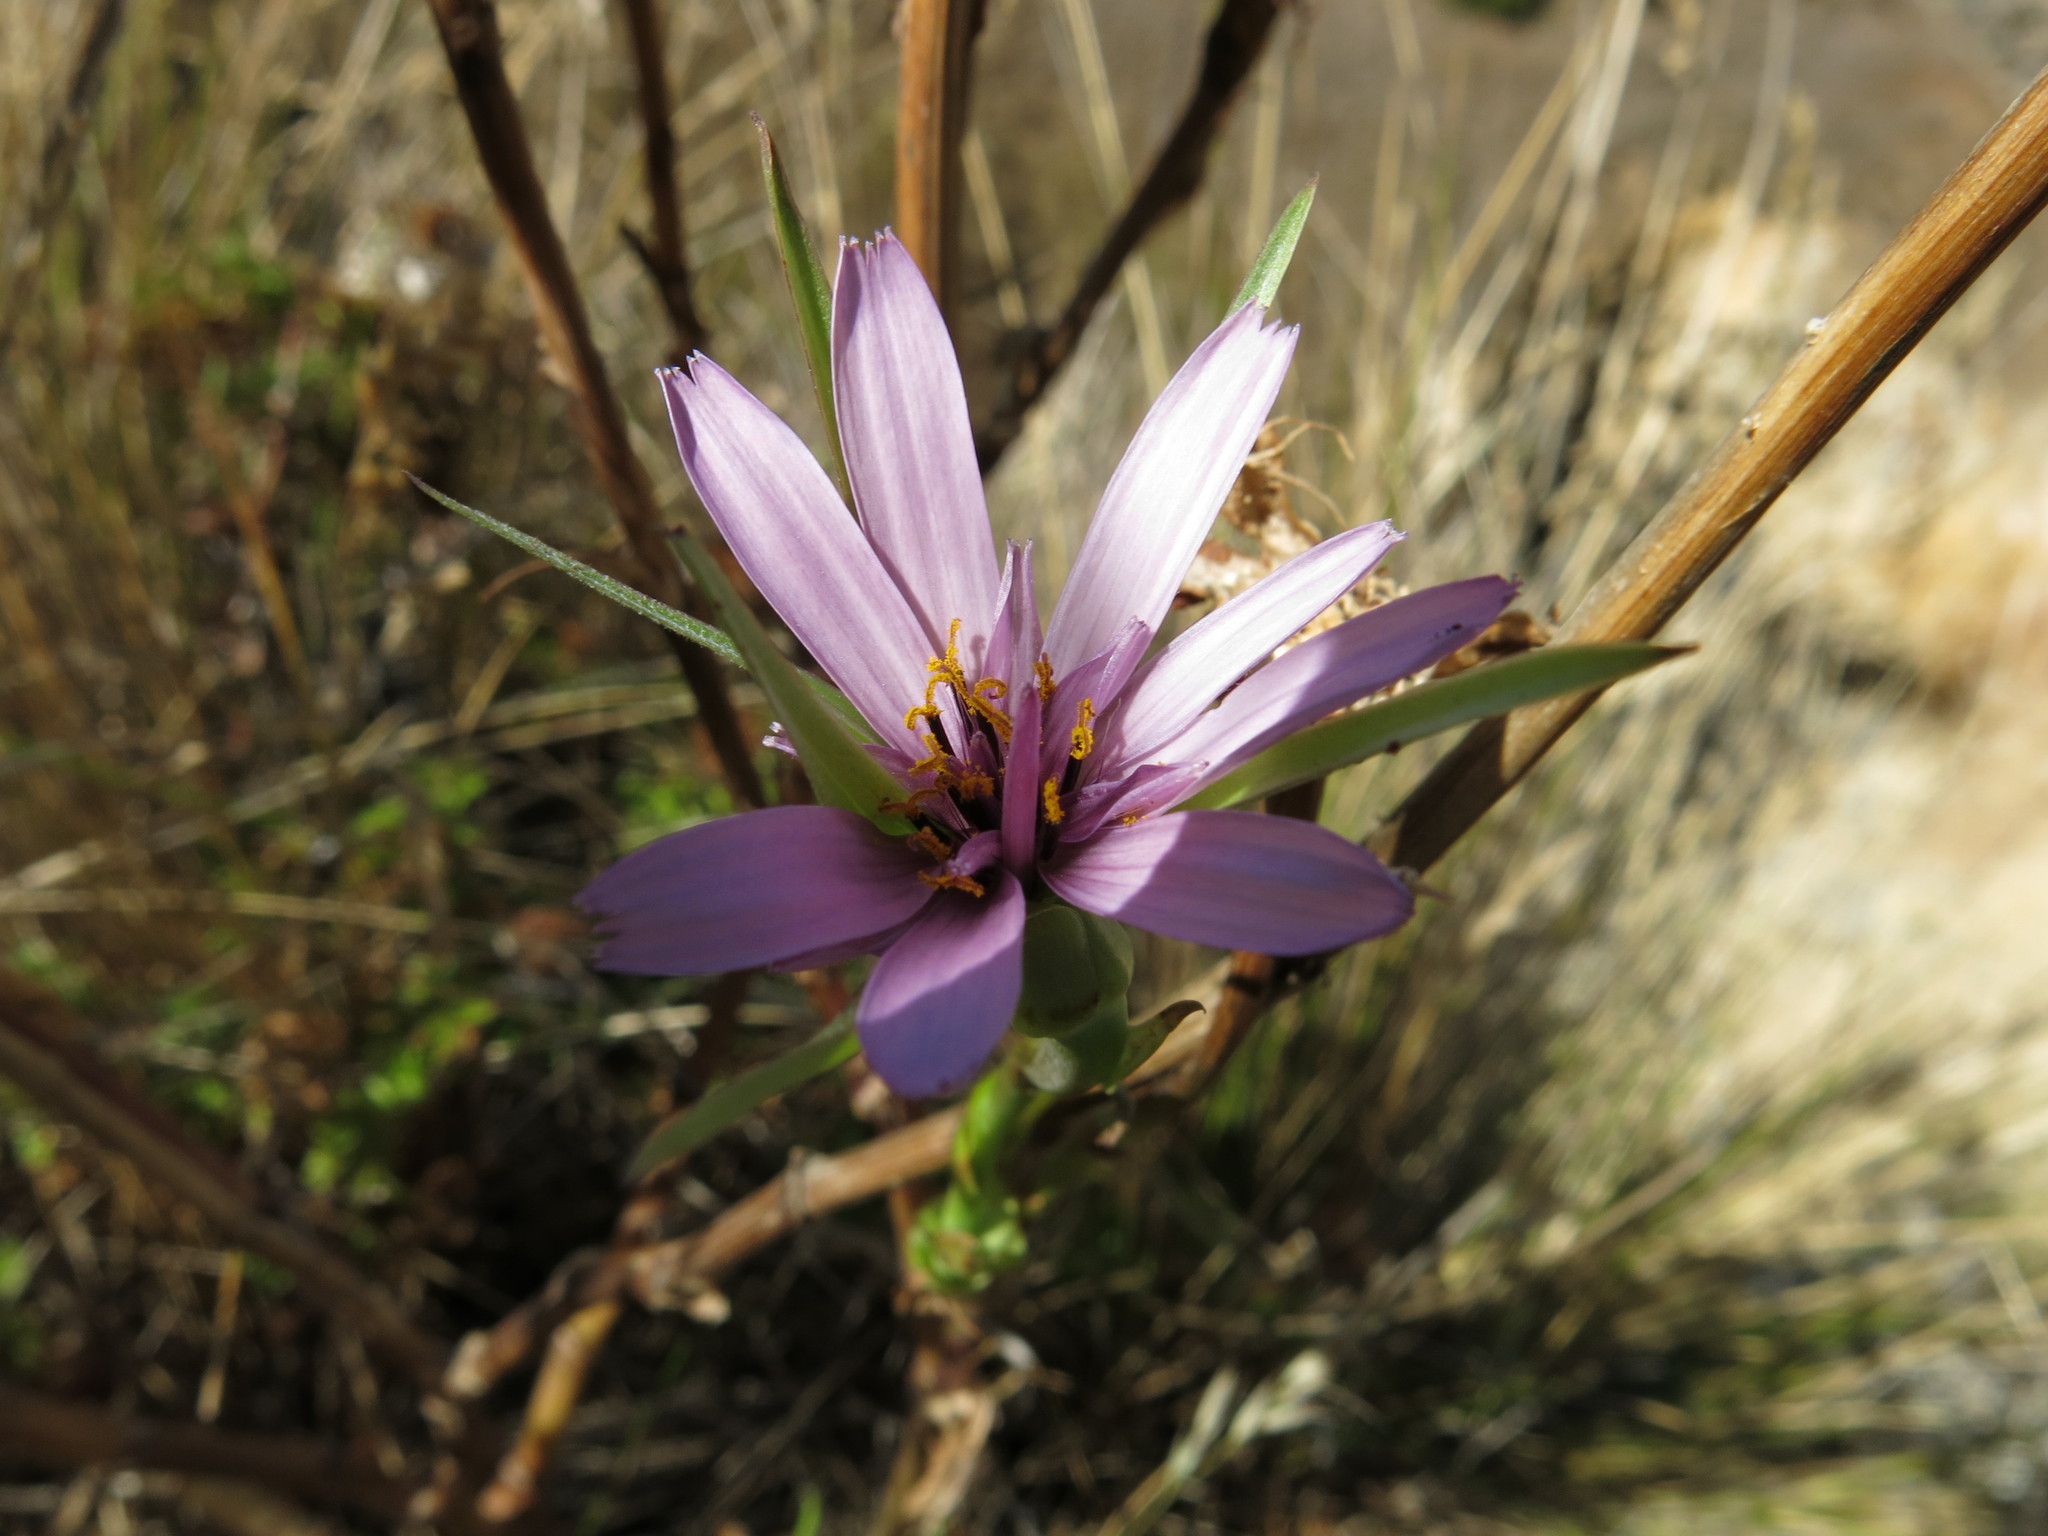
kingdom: Plantae
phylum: Tracheophyta
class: Magnoliopsida
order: Asterales
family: Asteraceae
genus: Tragopogon
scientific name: Tragopogon porrifolius
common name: Salsify
